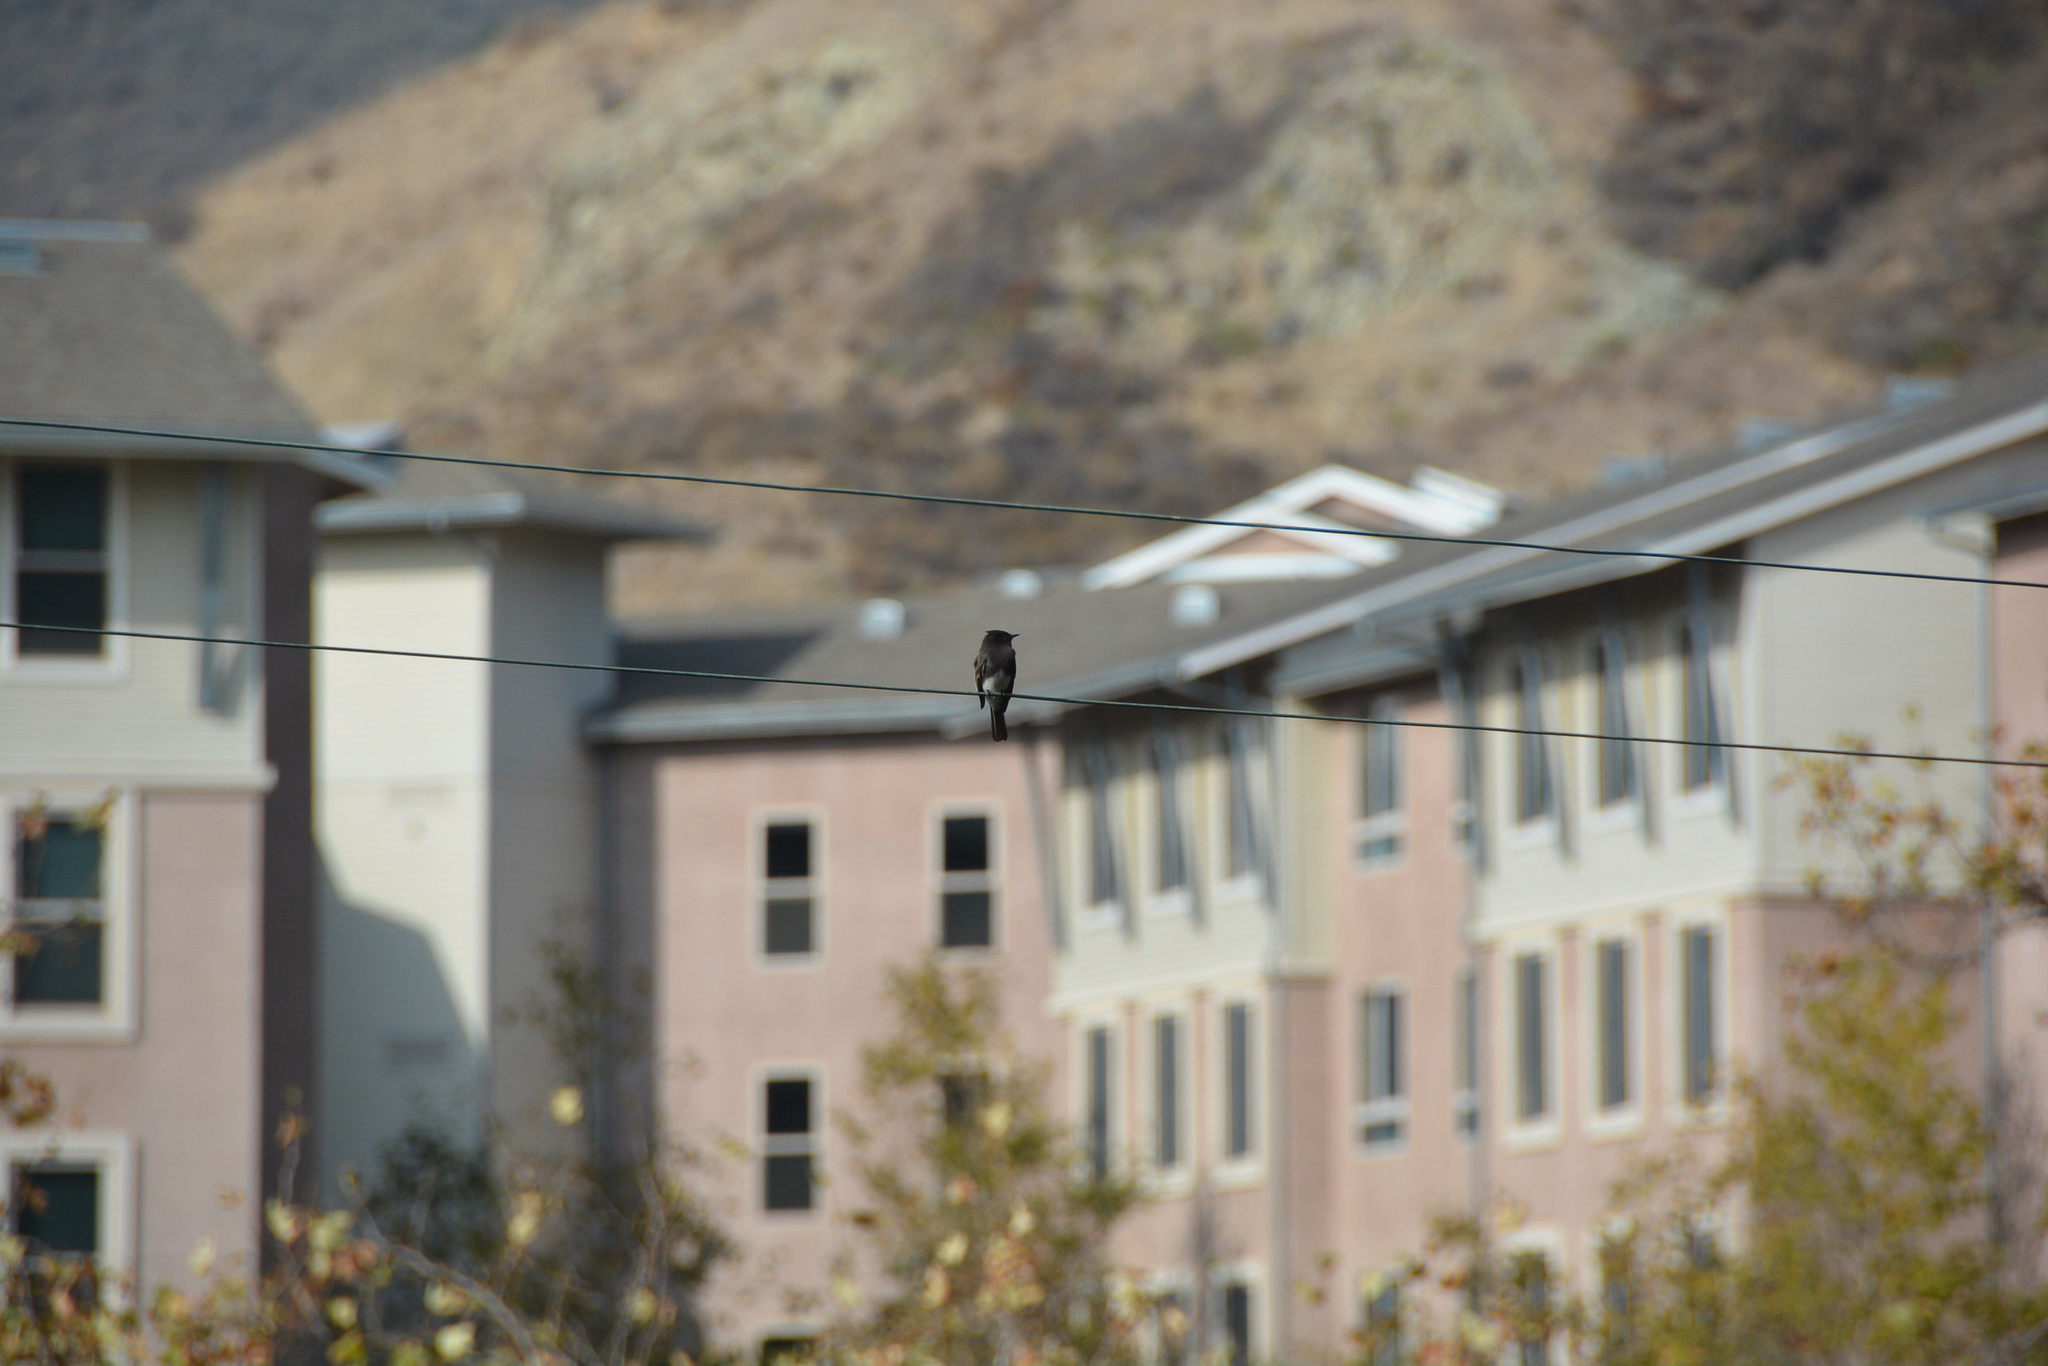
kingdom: Animalia
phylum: Chordata
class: Aves
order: Passeriformes
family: Tyrannidae
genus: Sayornis
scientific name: Sayornis nigricans
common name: Black phoebe
